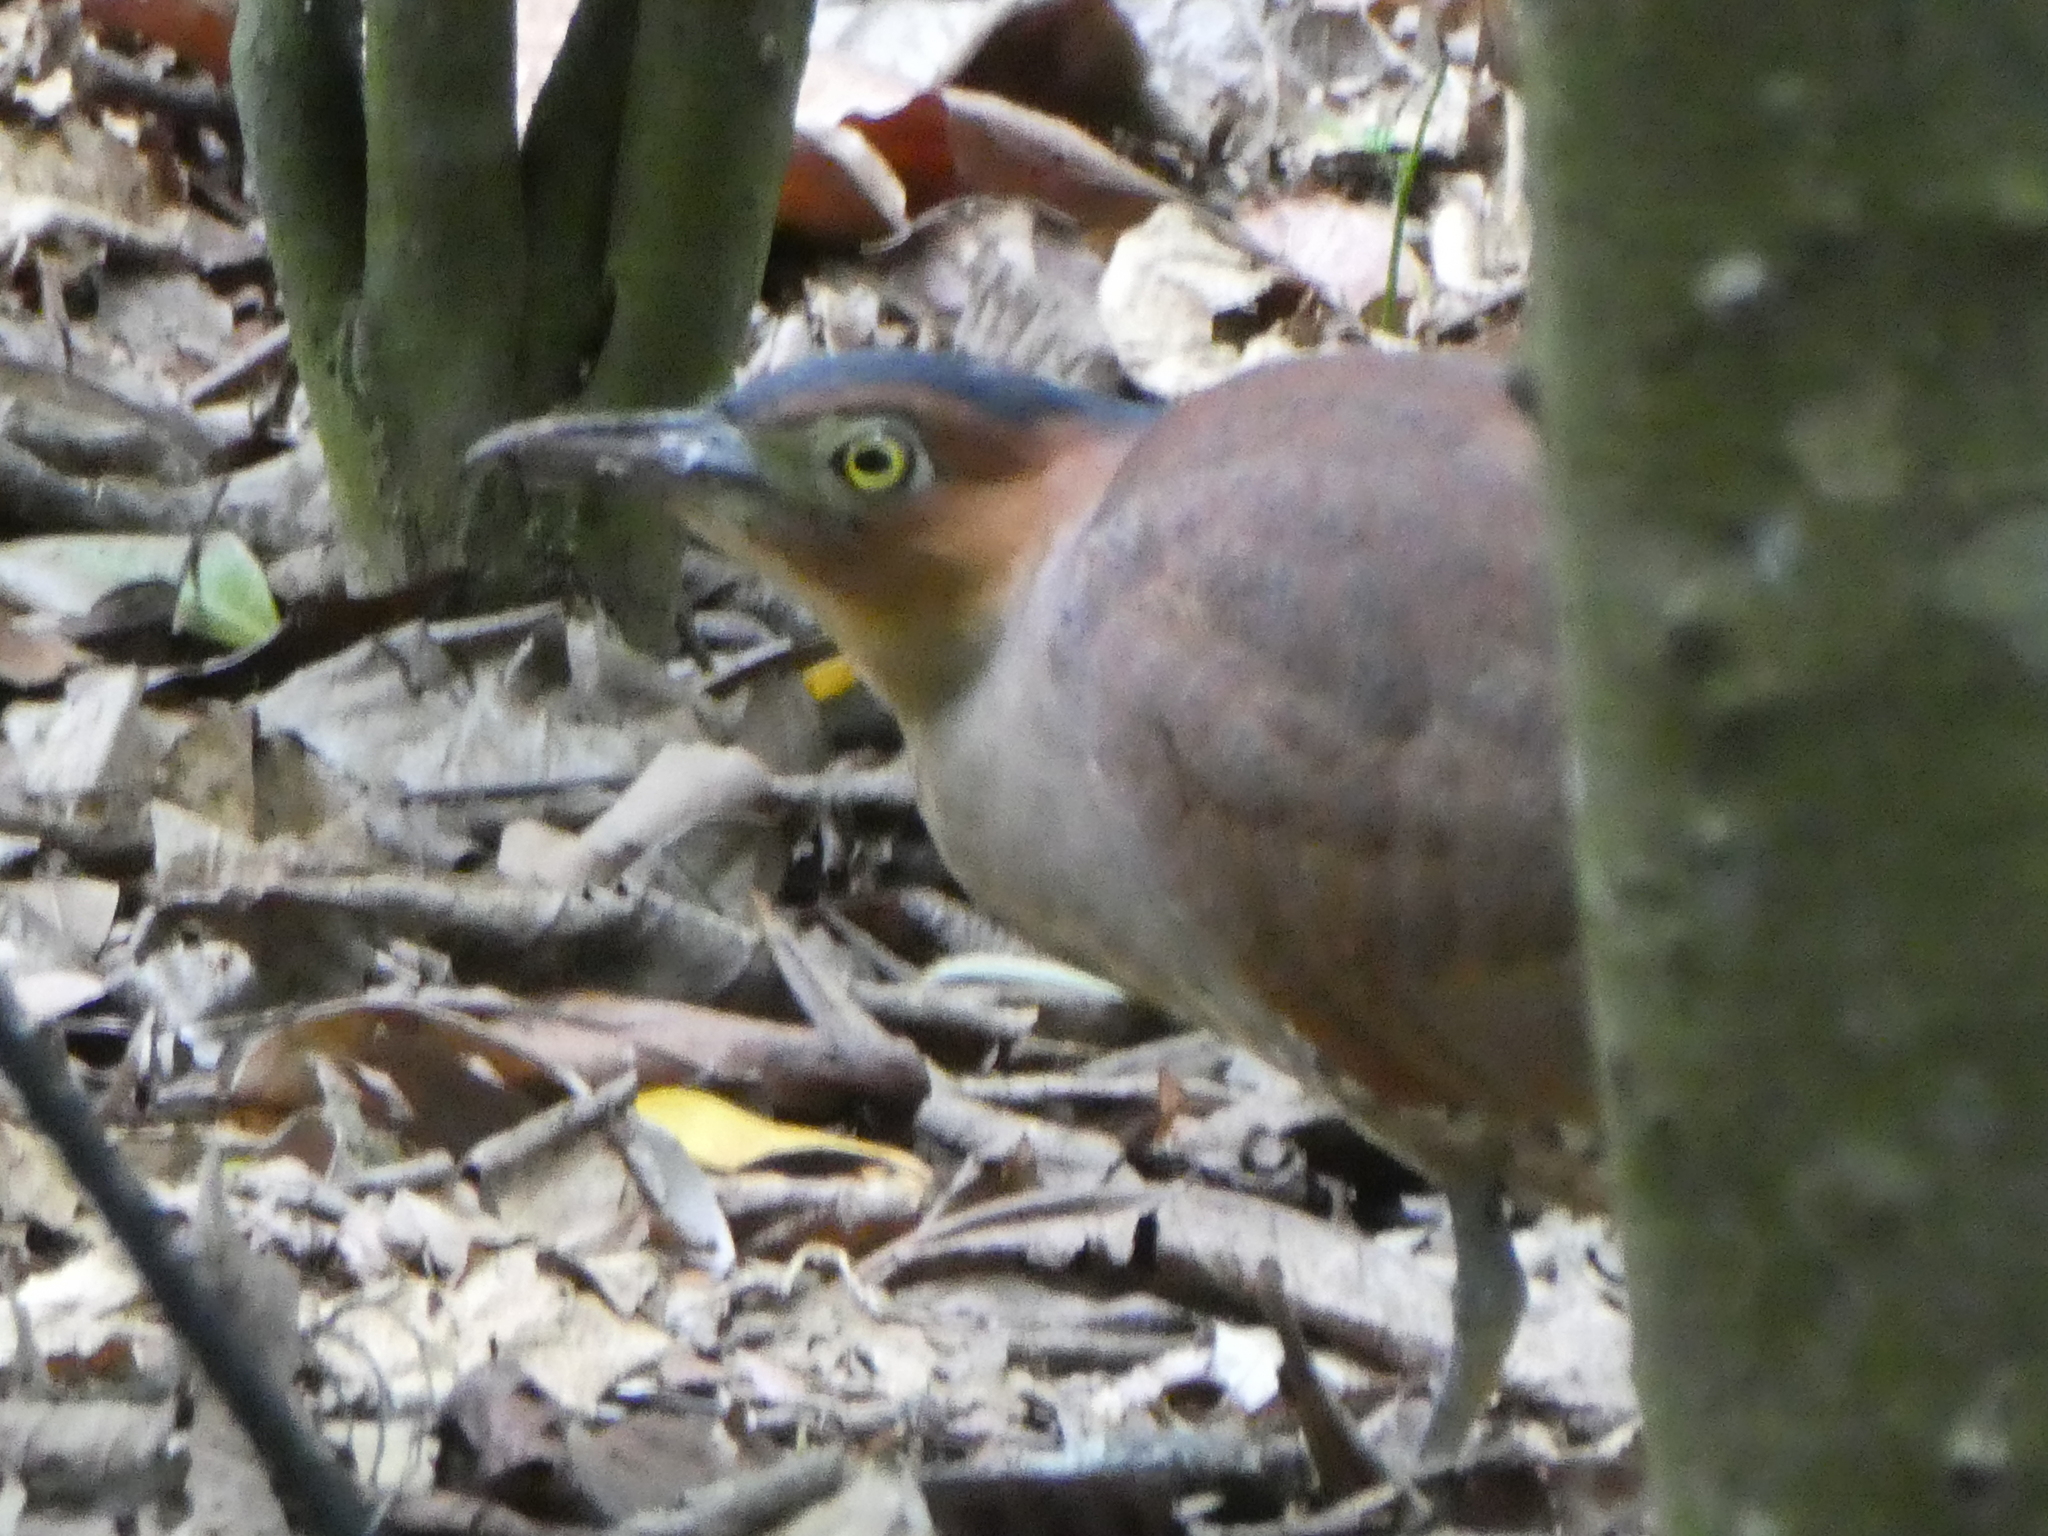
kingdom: Animalia
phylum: Chordata
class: Aves
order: Pelecaniformes
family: Ardeidae
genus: Gorsachius
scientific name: Gorsachius melanolophus
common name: Malayan night heron
